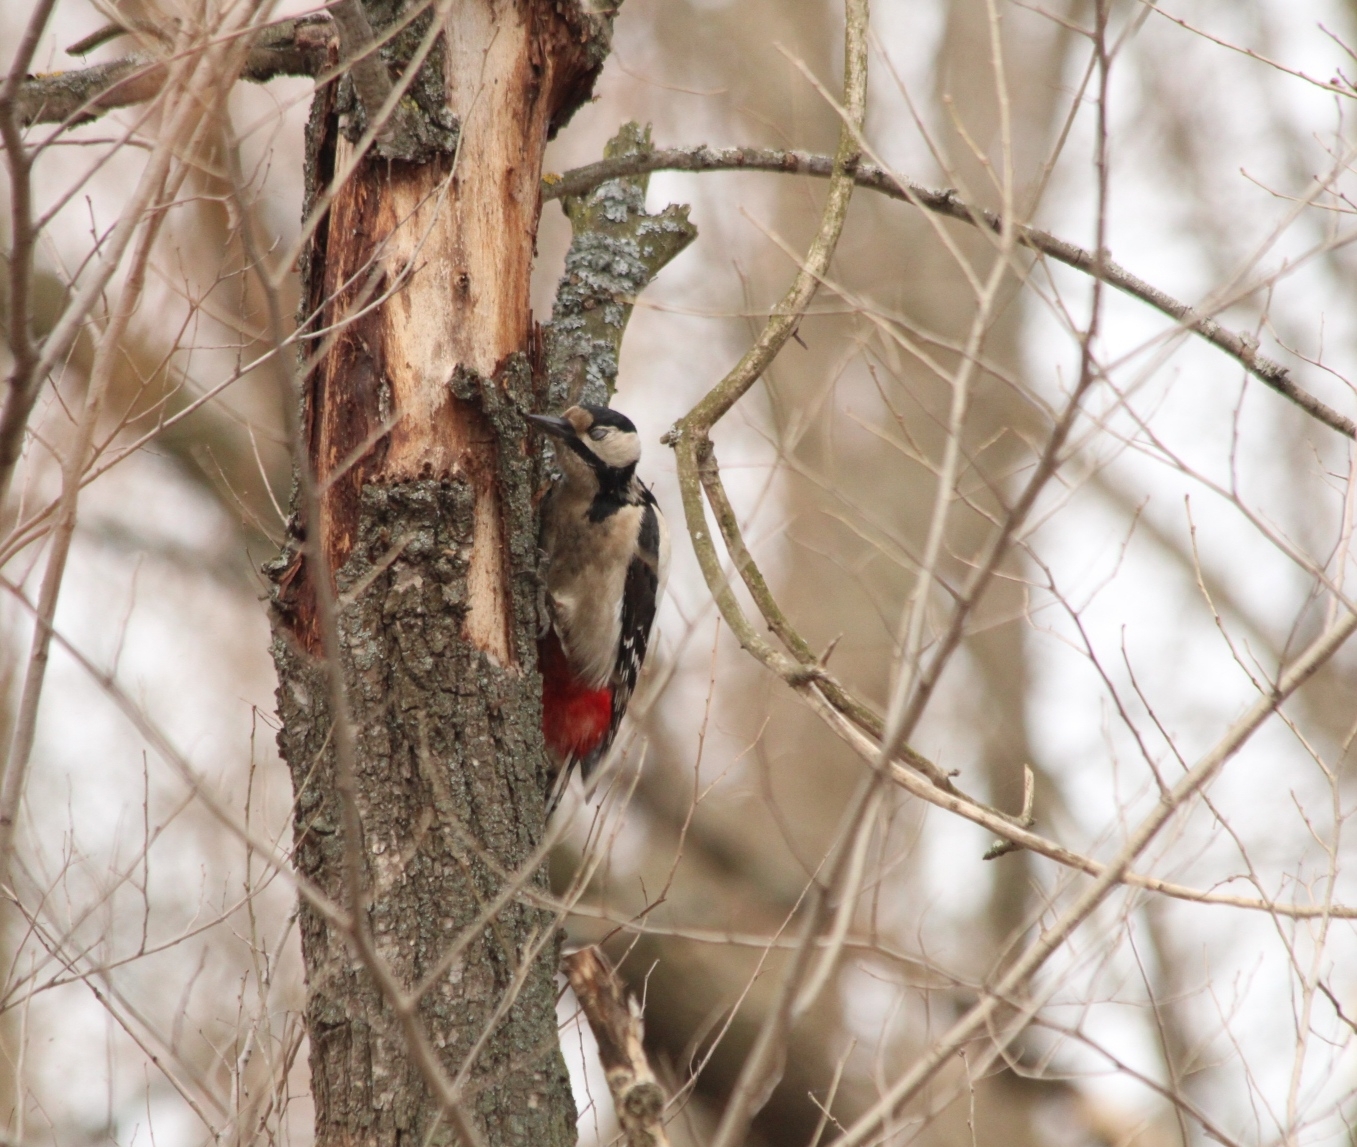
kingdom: Animalia
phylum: Chordata
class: Aves
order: Piciformes
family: Picidae
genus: Dendrocopos
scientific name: Dendrocopos major
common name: Great spotted woodpecker
